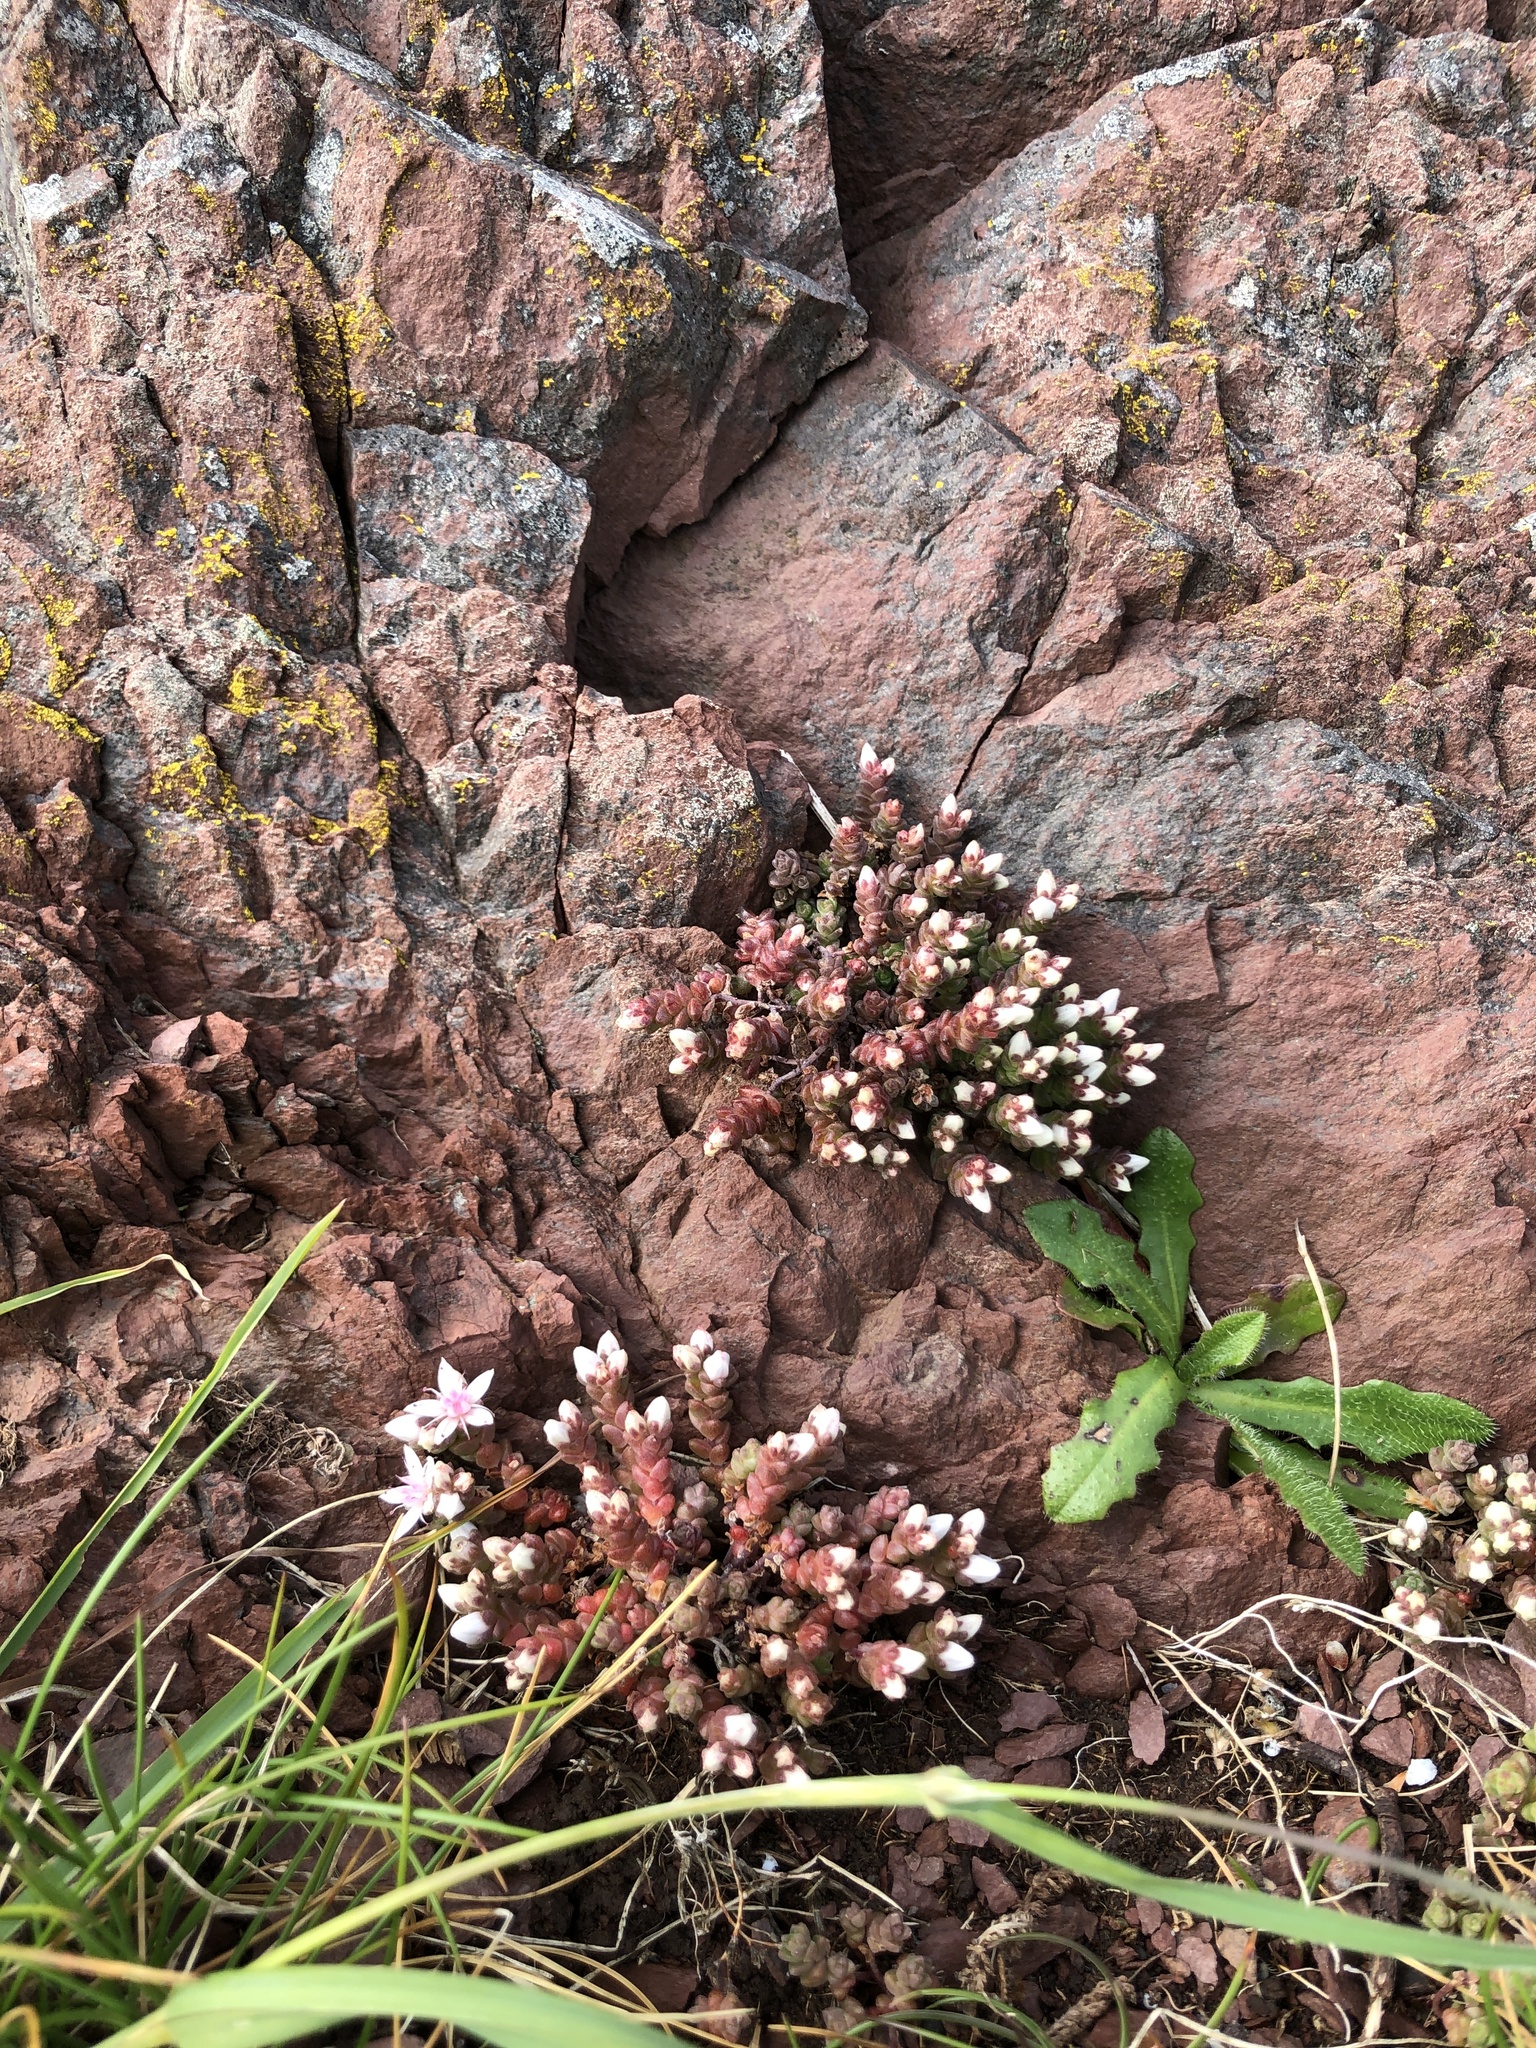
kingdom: Plantae
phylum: Tracheophyta
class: Magnoliopsida
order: Saxifragales
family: Crassulaceae
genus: Sedum
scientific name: Sedum anglicum
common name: English stonecrop
